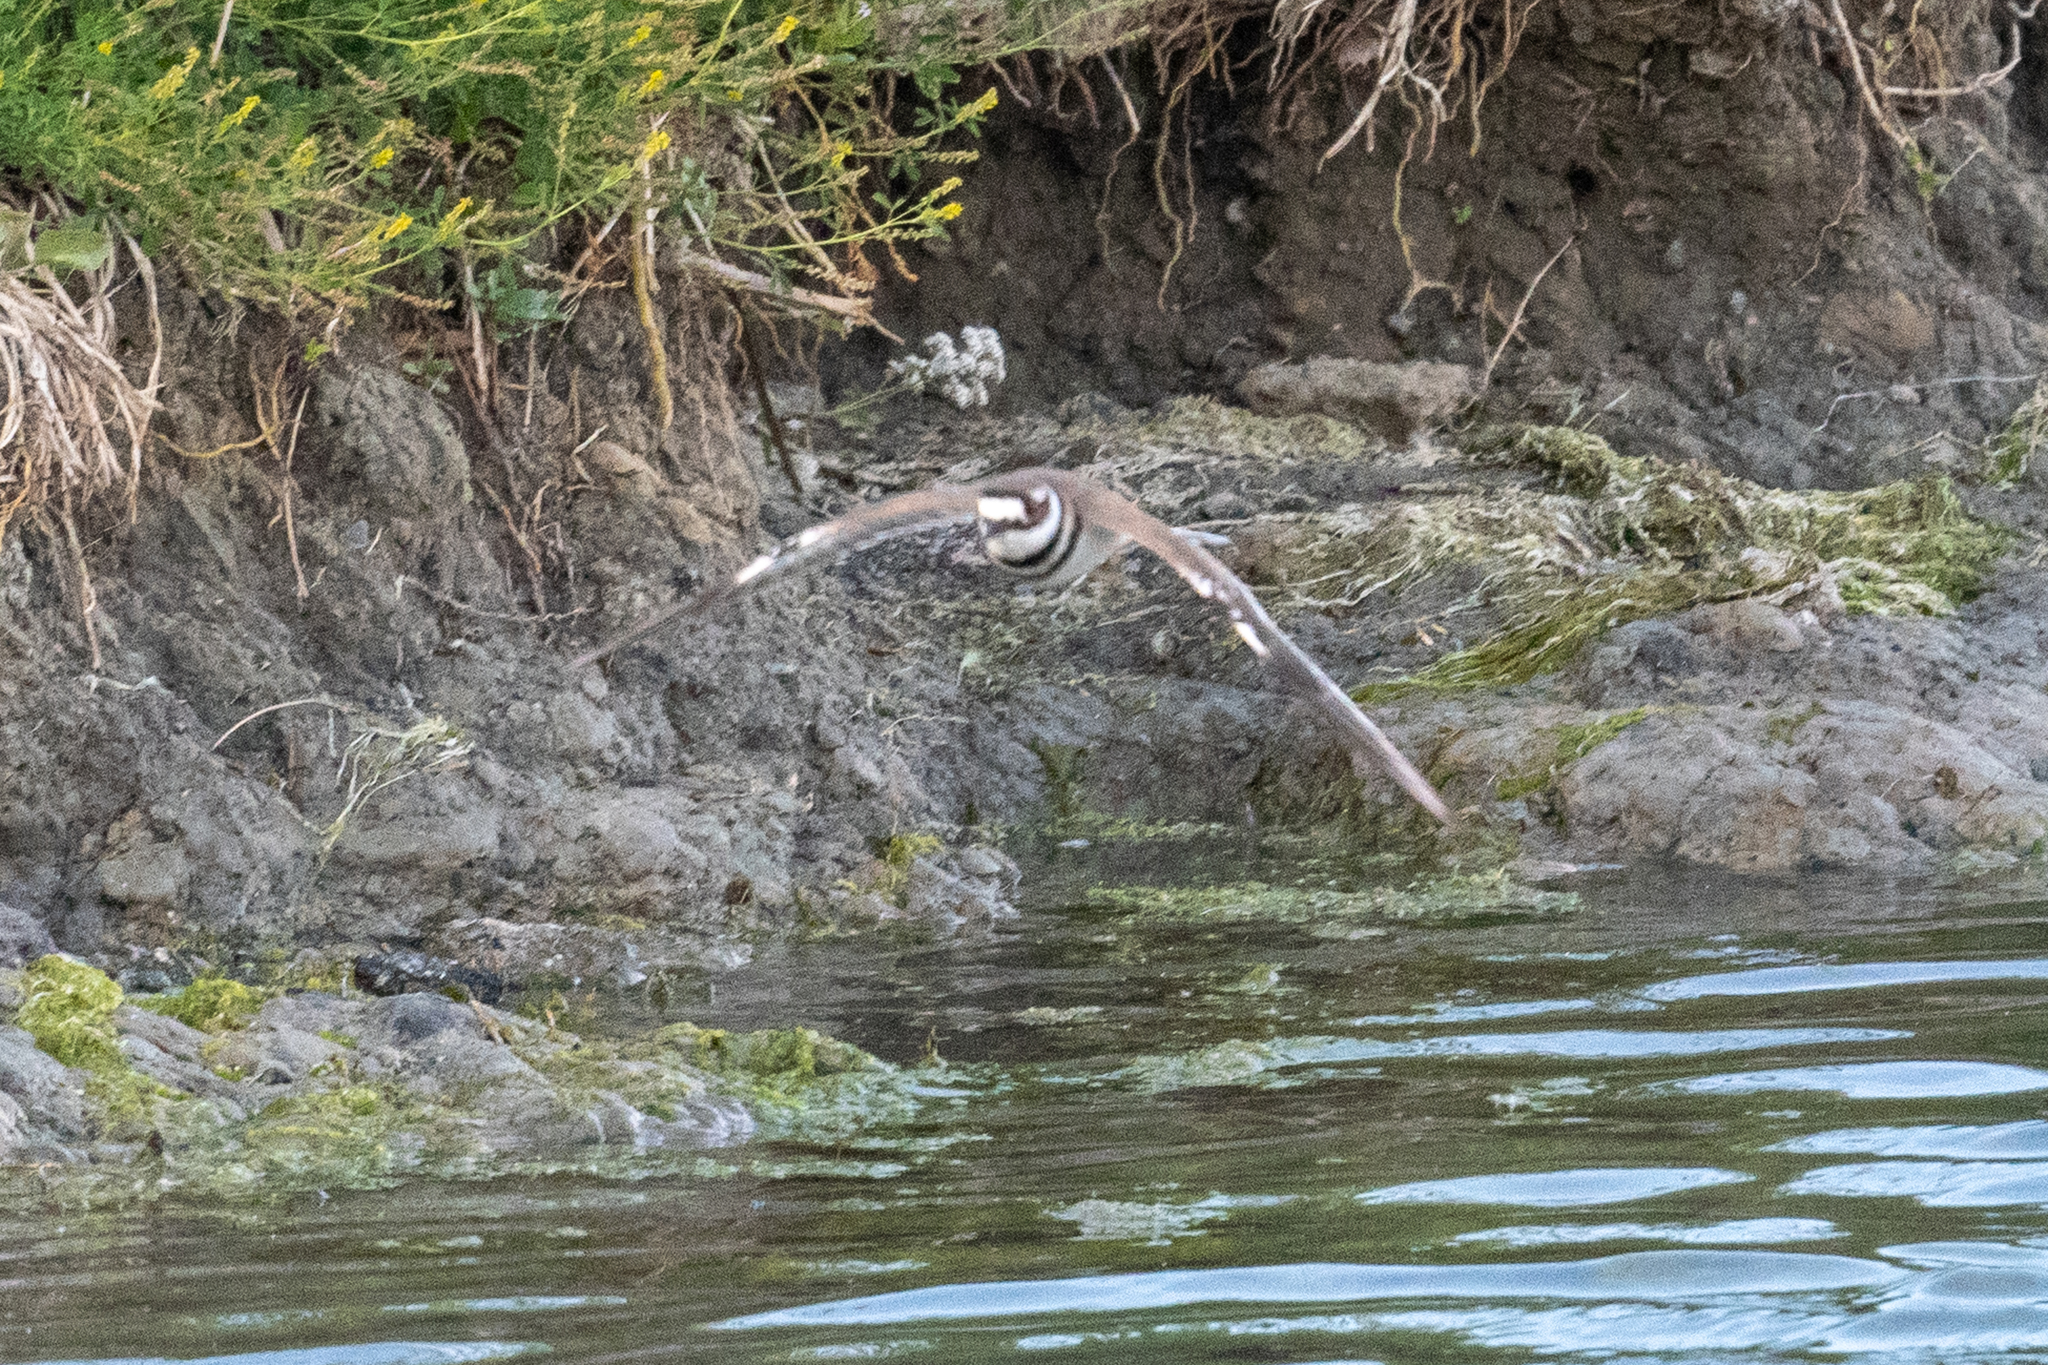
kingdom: Animalia
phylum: Chordata
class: Aves
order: Charadriiformes
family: Charadriidae
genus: Charadrius
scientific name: Charadrius vociferus
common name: Killdeer
